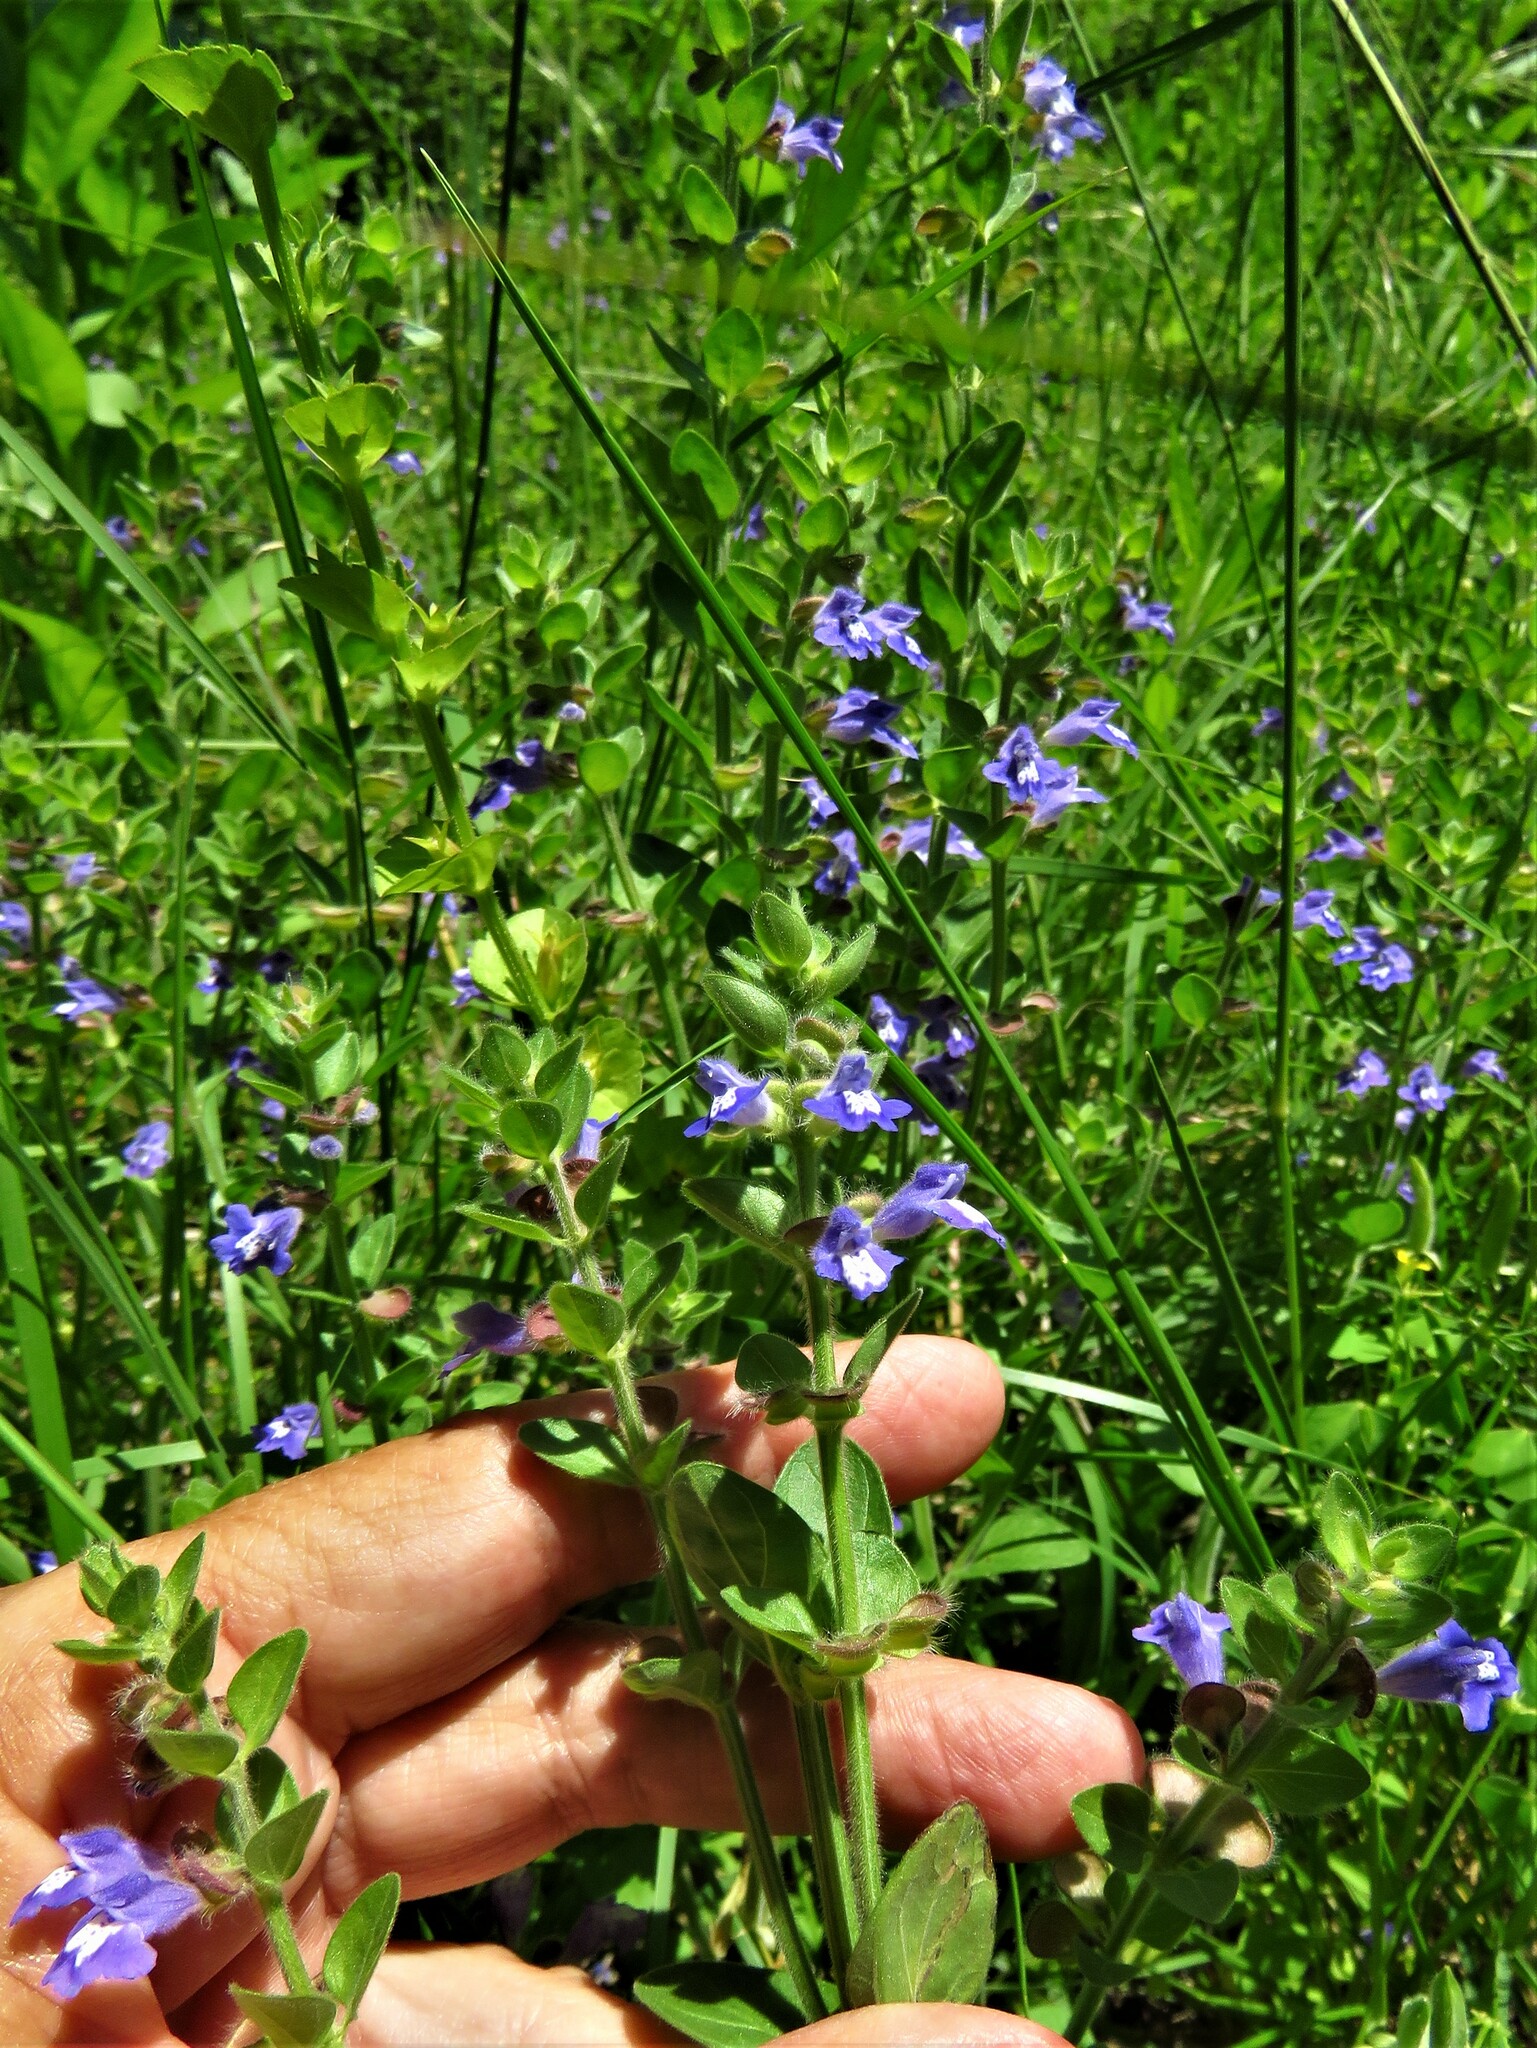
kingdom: Plantae
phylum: Tracheophyta
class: Magnoliopsida
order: Lamiales
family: Lamiaceae
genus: Scutellaria
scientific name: Scutellaria drummondii
